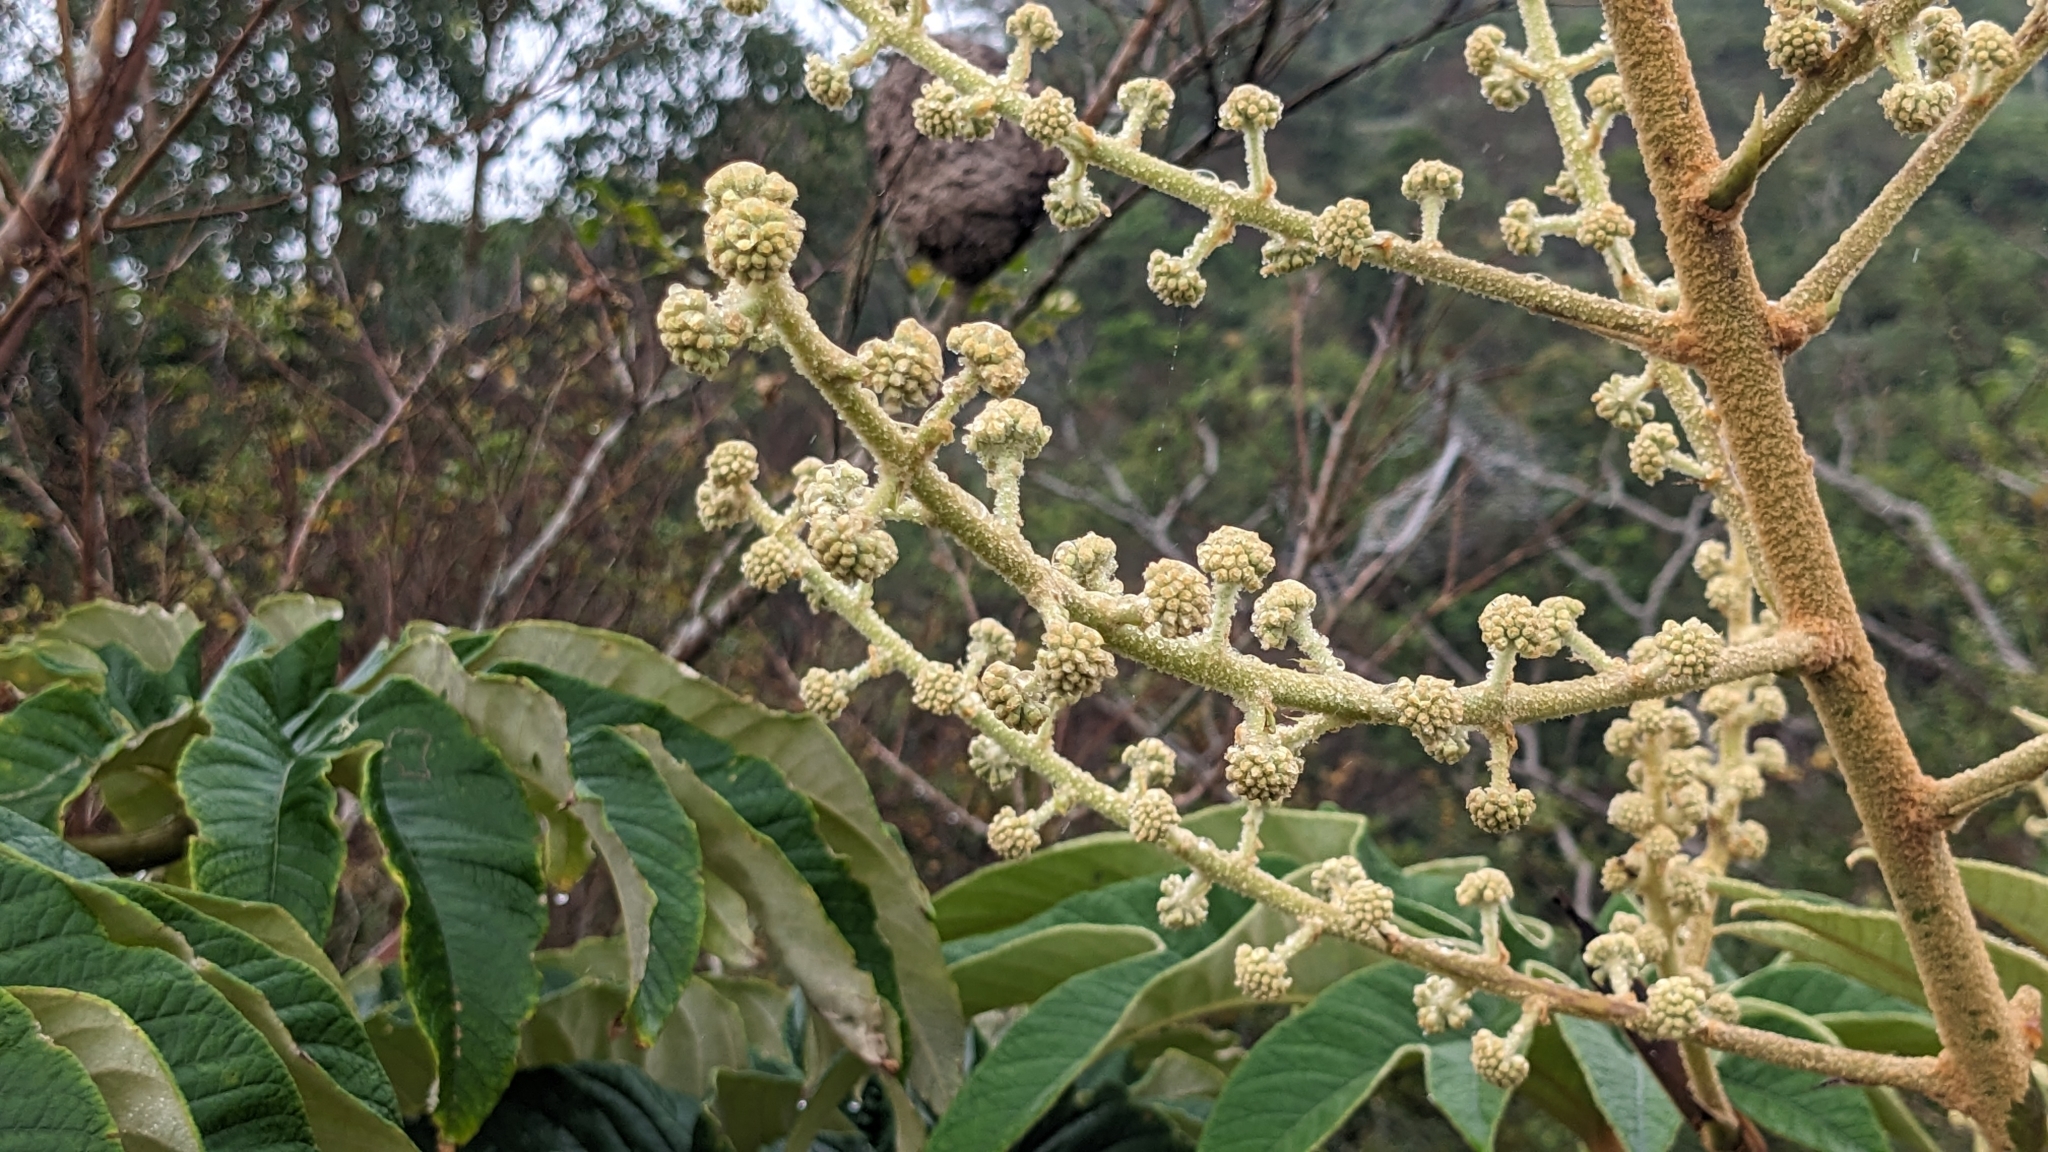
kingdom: Plantae
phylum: Tracheophyta
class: Magnoliopsida
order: Apiales
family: Araliaceae
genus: Tetrapanax
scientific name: Tetrapanax papyrifer
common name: Rice-paper plant
